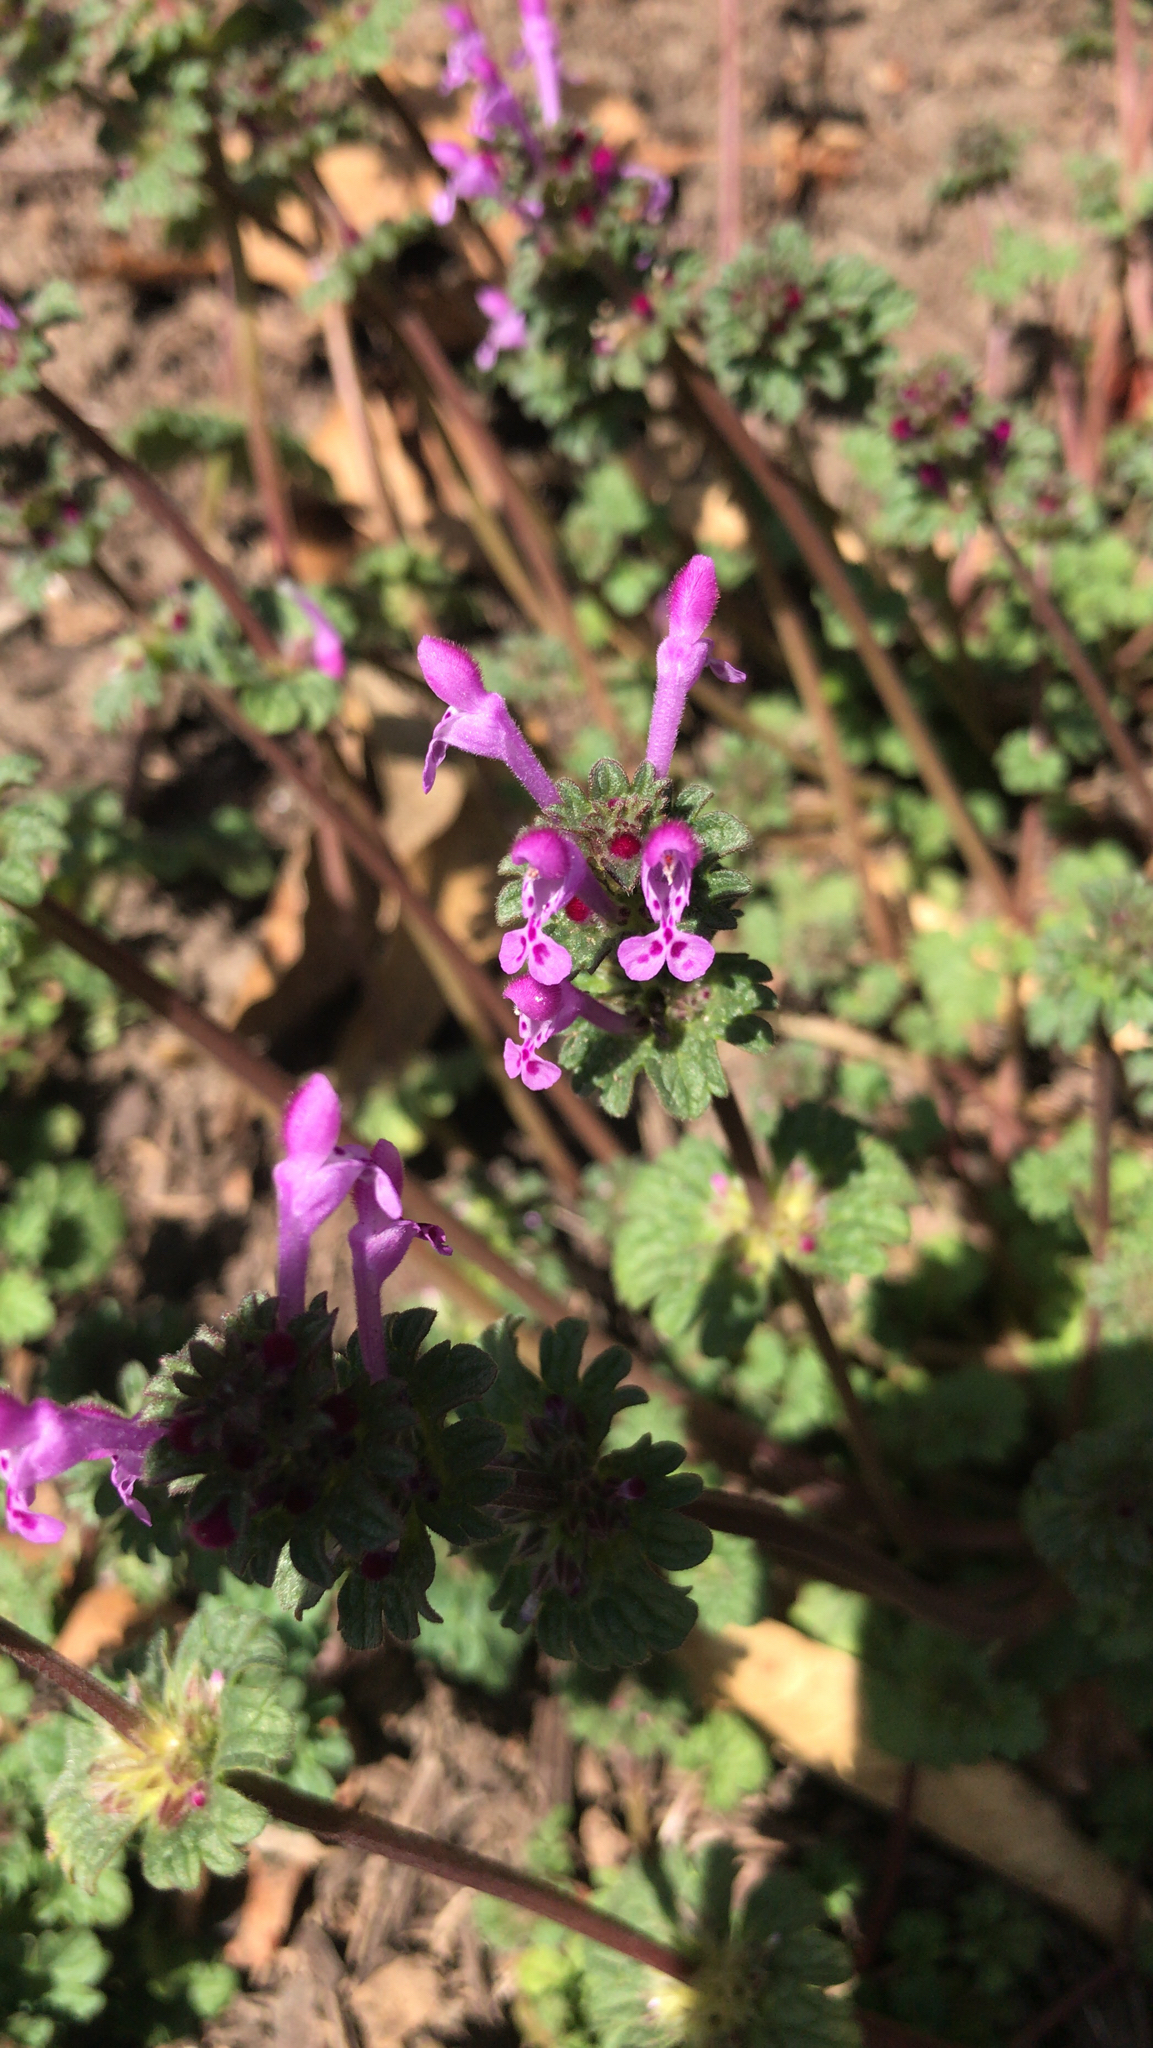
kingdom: Plantae
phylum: Tracheophyta
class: Magnoliopsida
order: Lamiales
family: Lamiaceae
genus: Lamium
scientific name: Lamium amplexicaule
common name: Henbit dead-nettle
